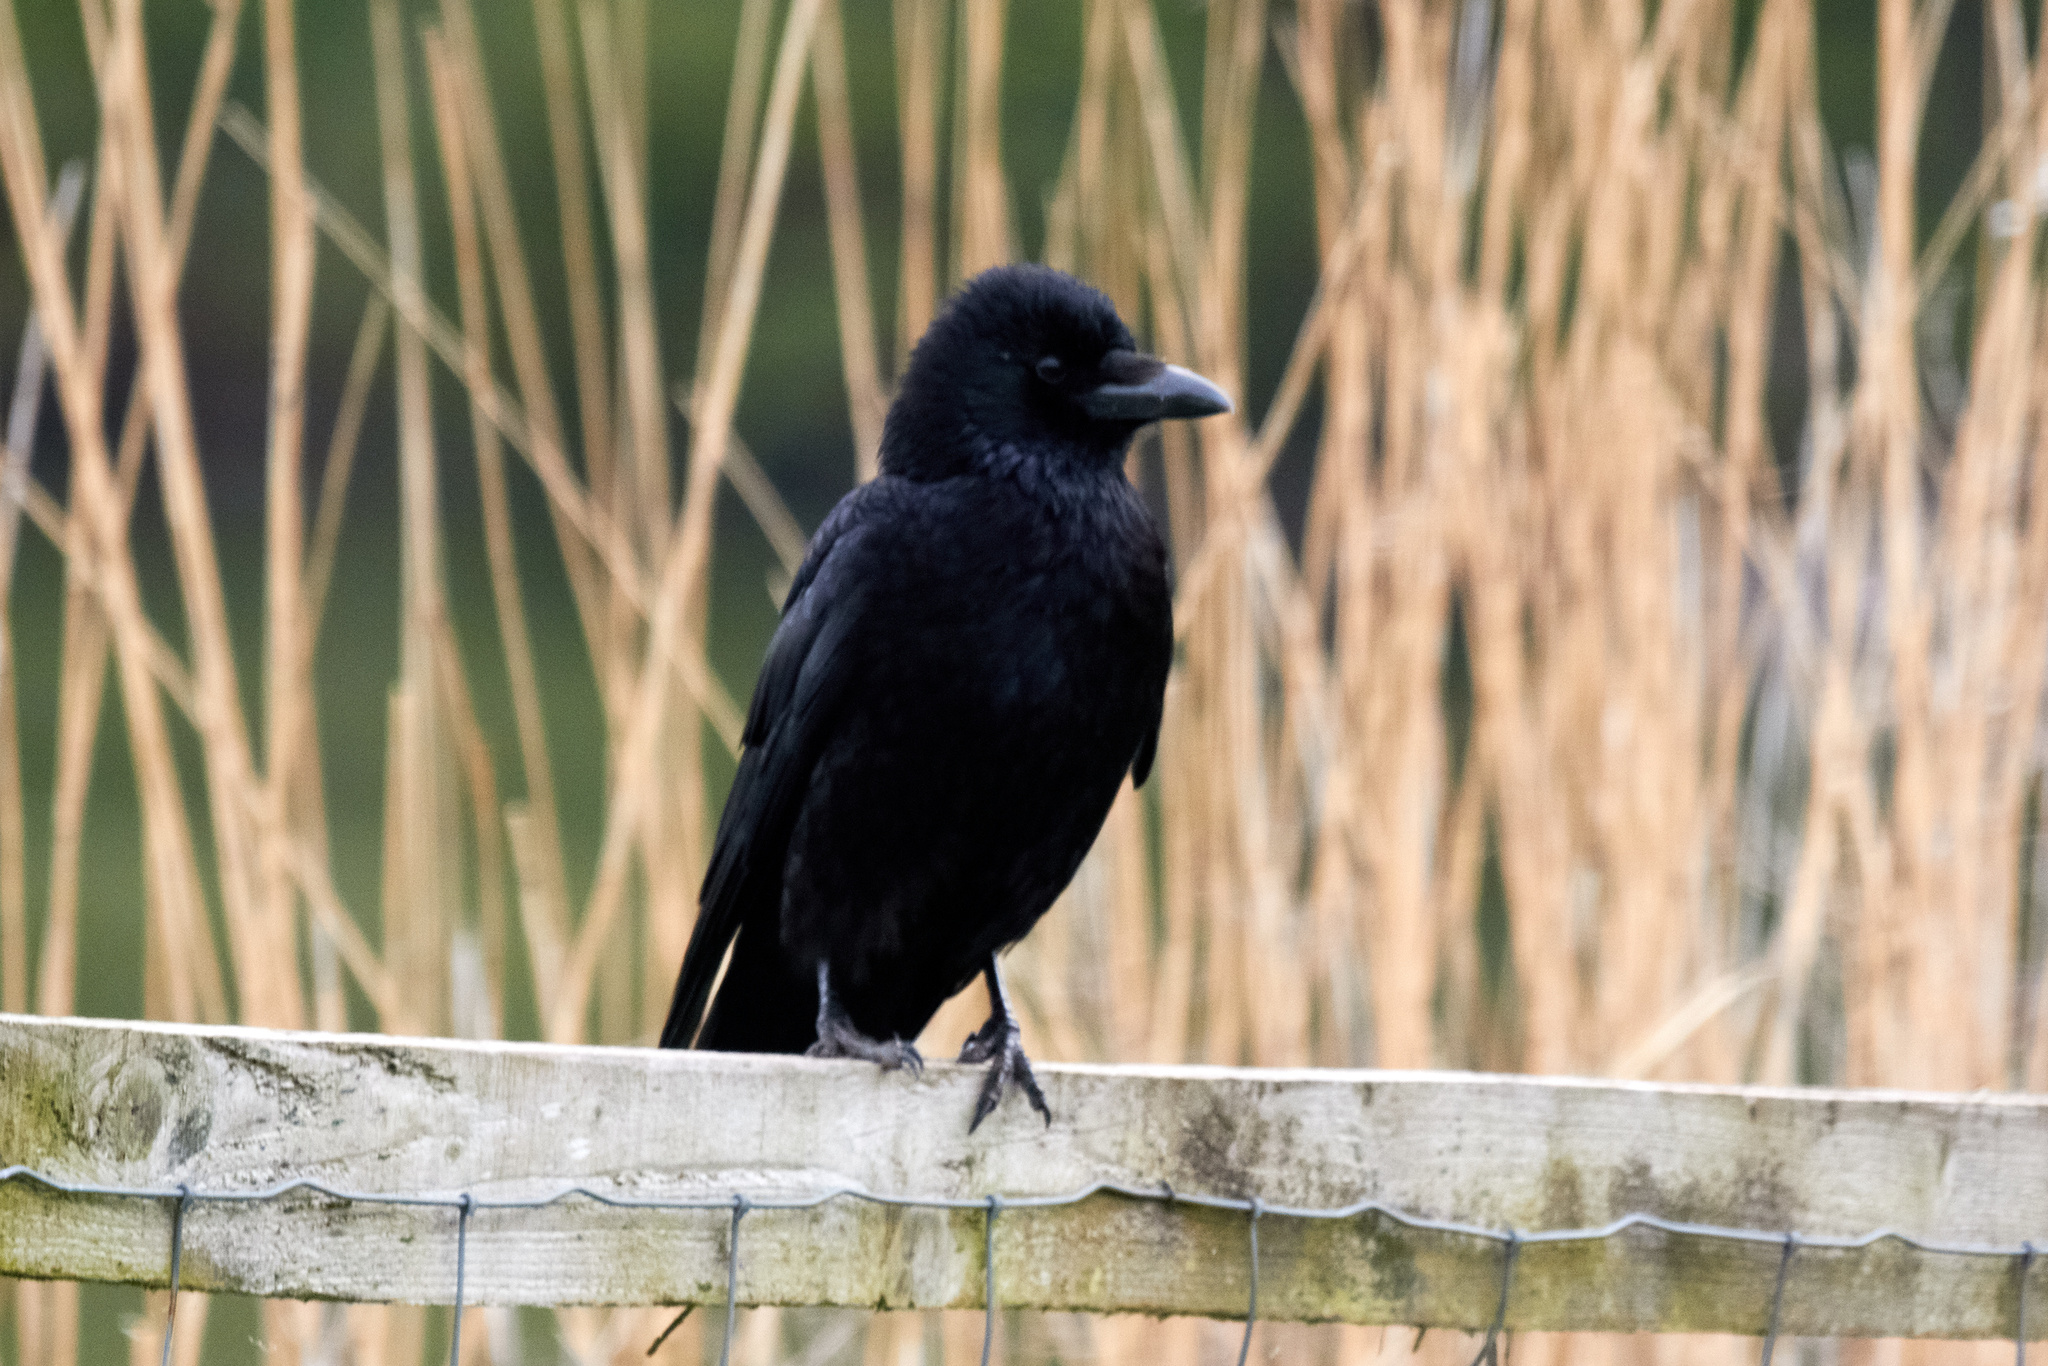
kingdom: Animalia
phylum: Chordata
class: Aves
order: Passeriformes
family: Corvidae
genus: Corvus
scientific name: Corvus corone
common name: Carrion crow
